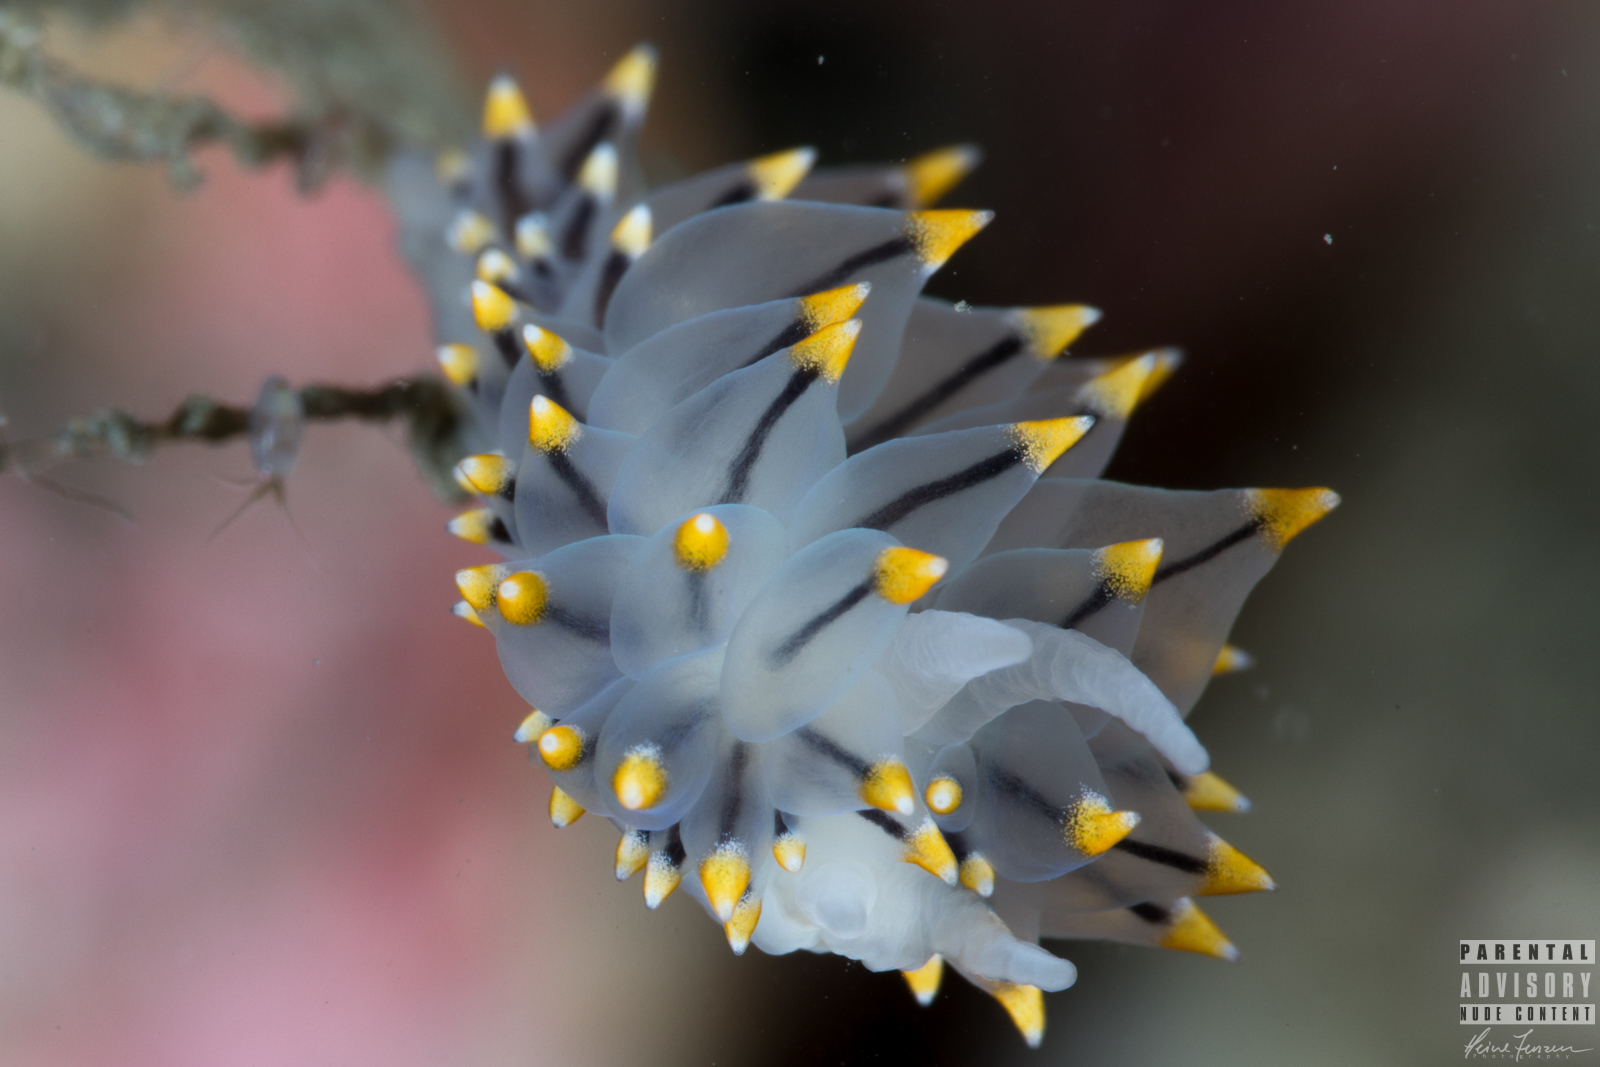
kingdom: Animalia
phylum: Mollusca
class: Gastropoda
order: Nudibranchia
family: Eubranchidae
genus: Eubranchus
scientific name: Eubranchus tricolor
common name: Painted balloon aeolis
